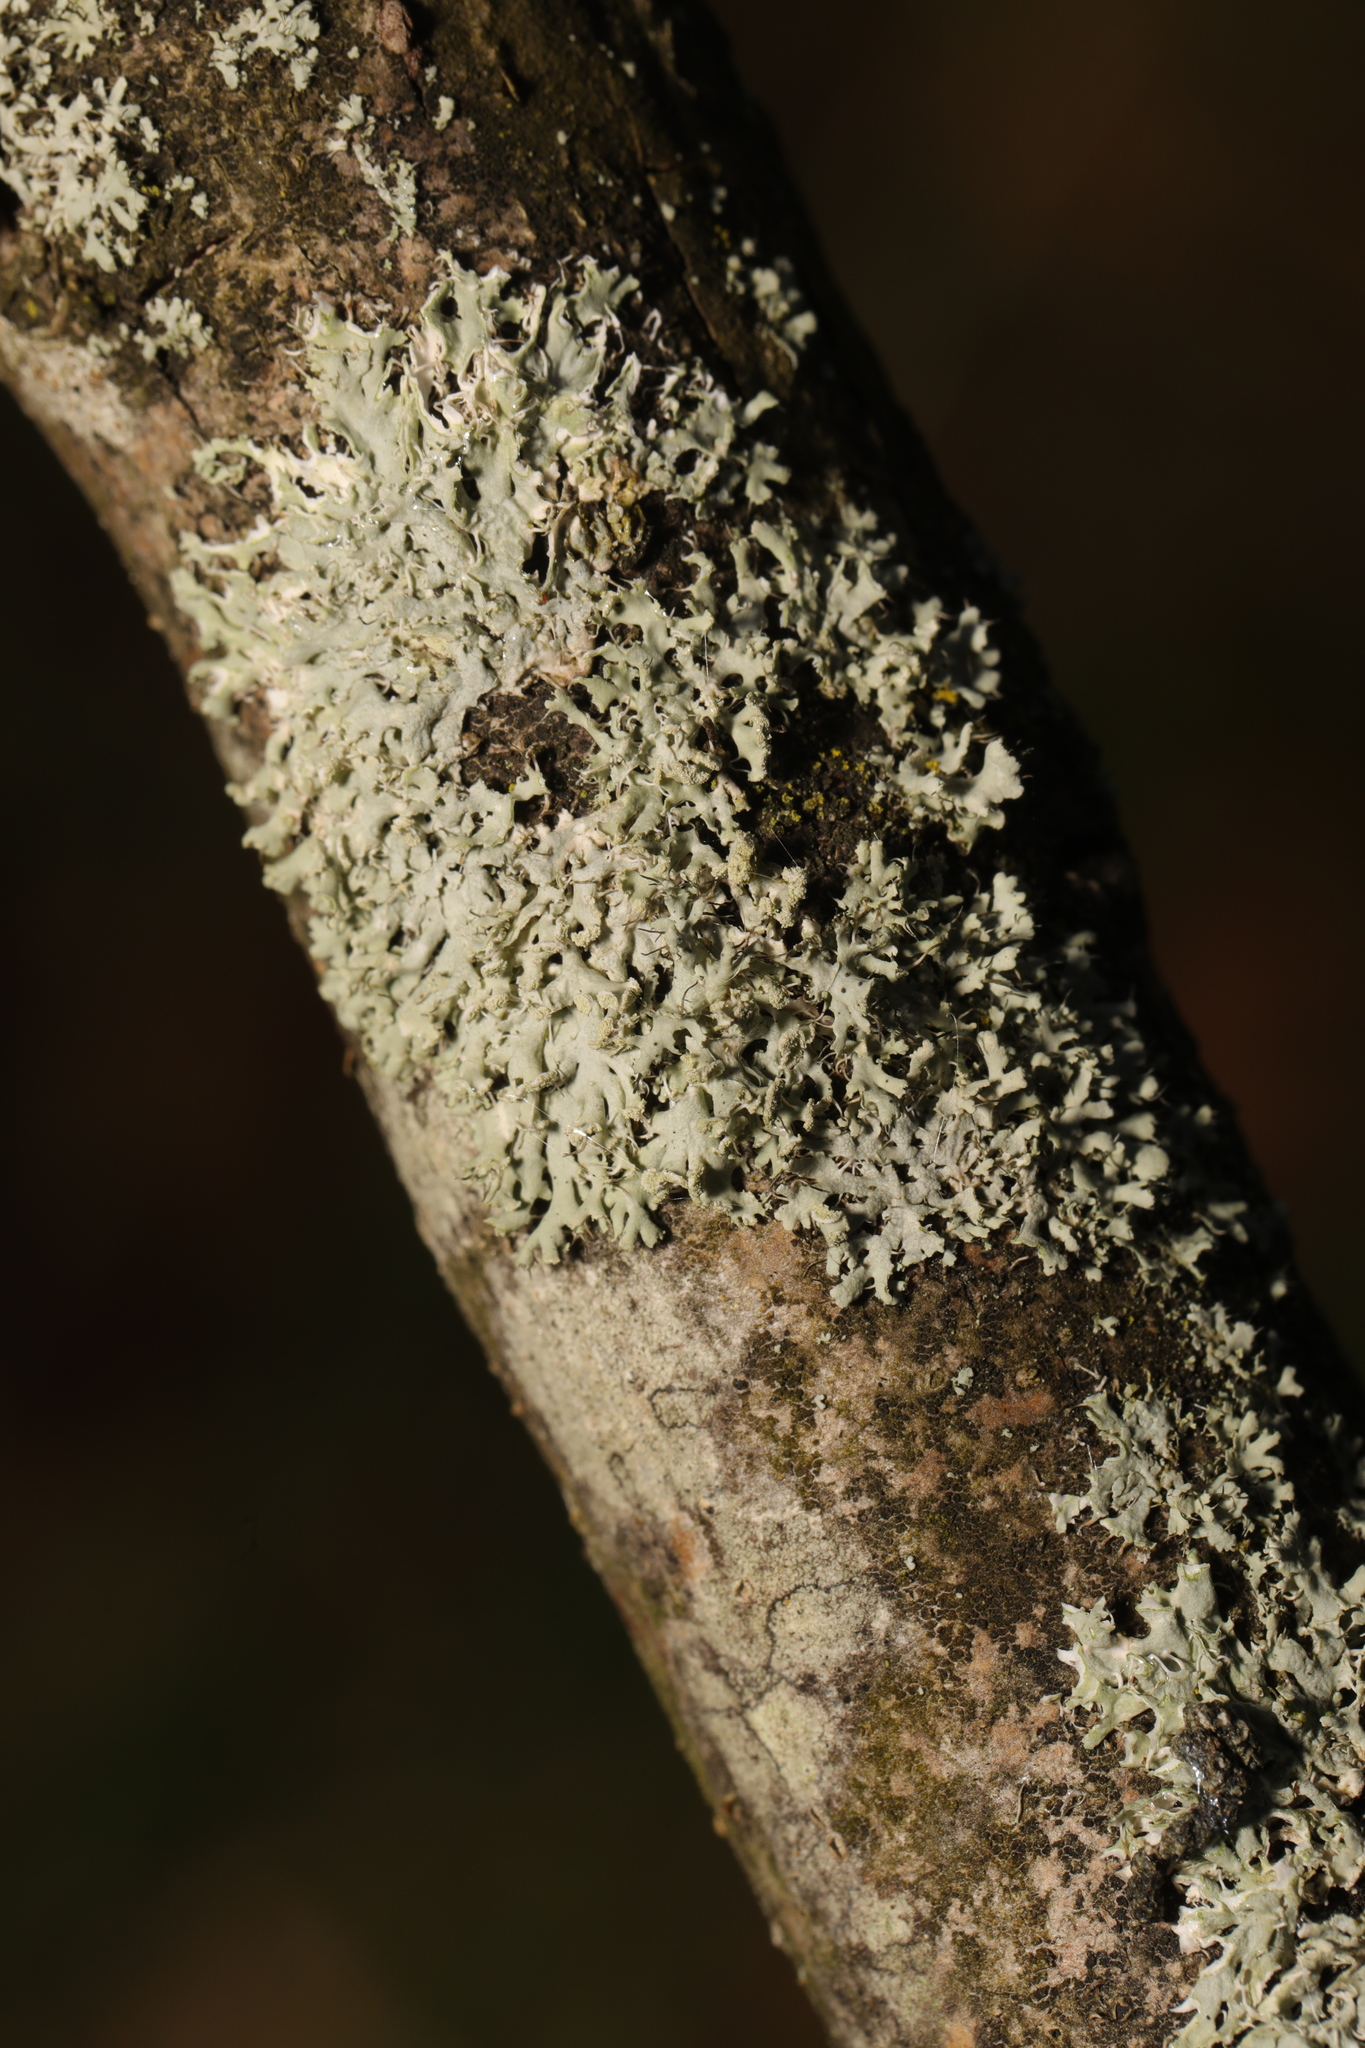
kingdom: Fungi
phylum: Ascomycota
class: Lecanoromycetes
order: Caliciales
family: Physciaceae
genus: Physcia
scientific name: Physcia tenella
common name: Fringed rosette lichen
